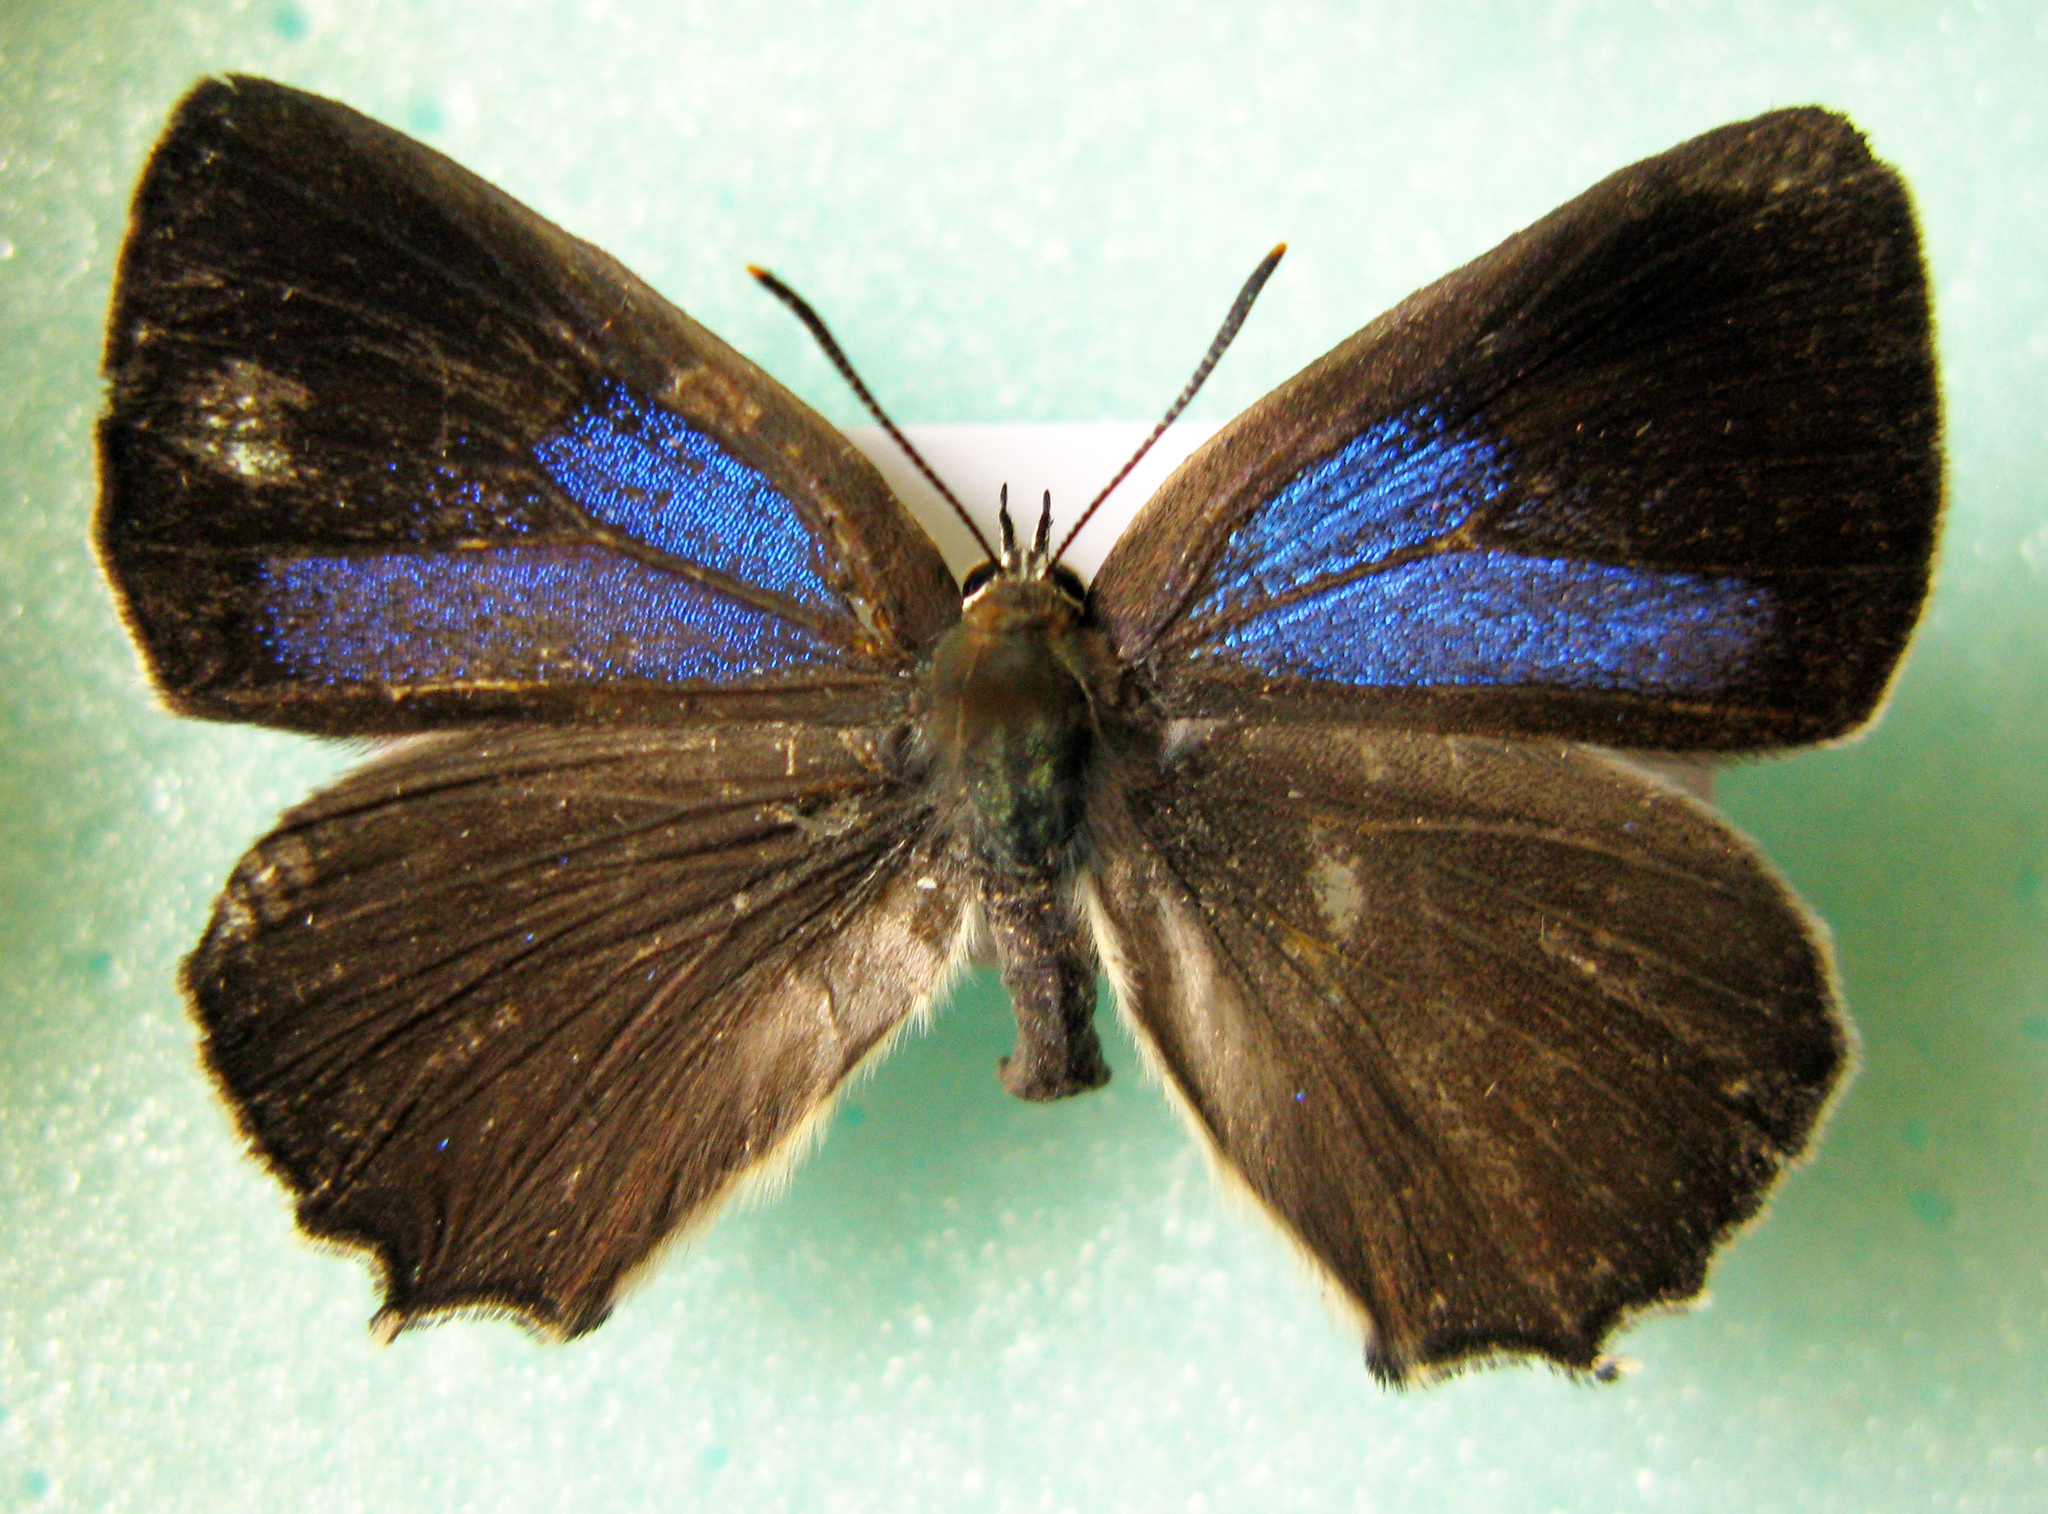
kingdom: Animalia
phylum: Arthropoda
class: Insecta
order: Lepidoptera
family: Lycaenidae
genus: Quercusia
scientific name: Quercusia quercus
